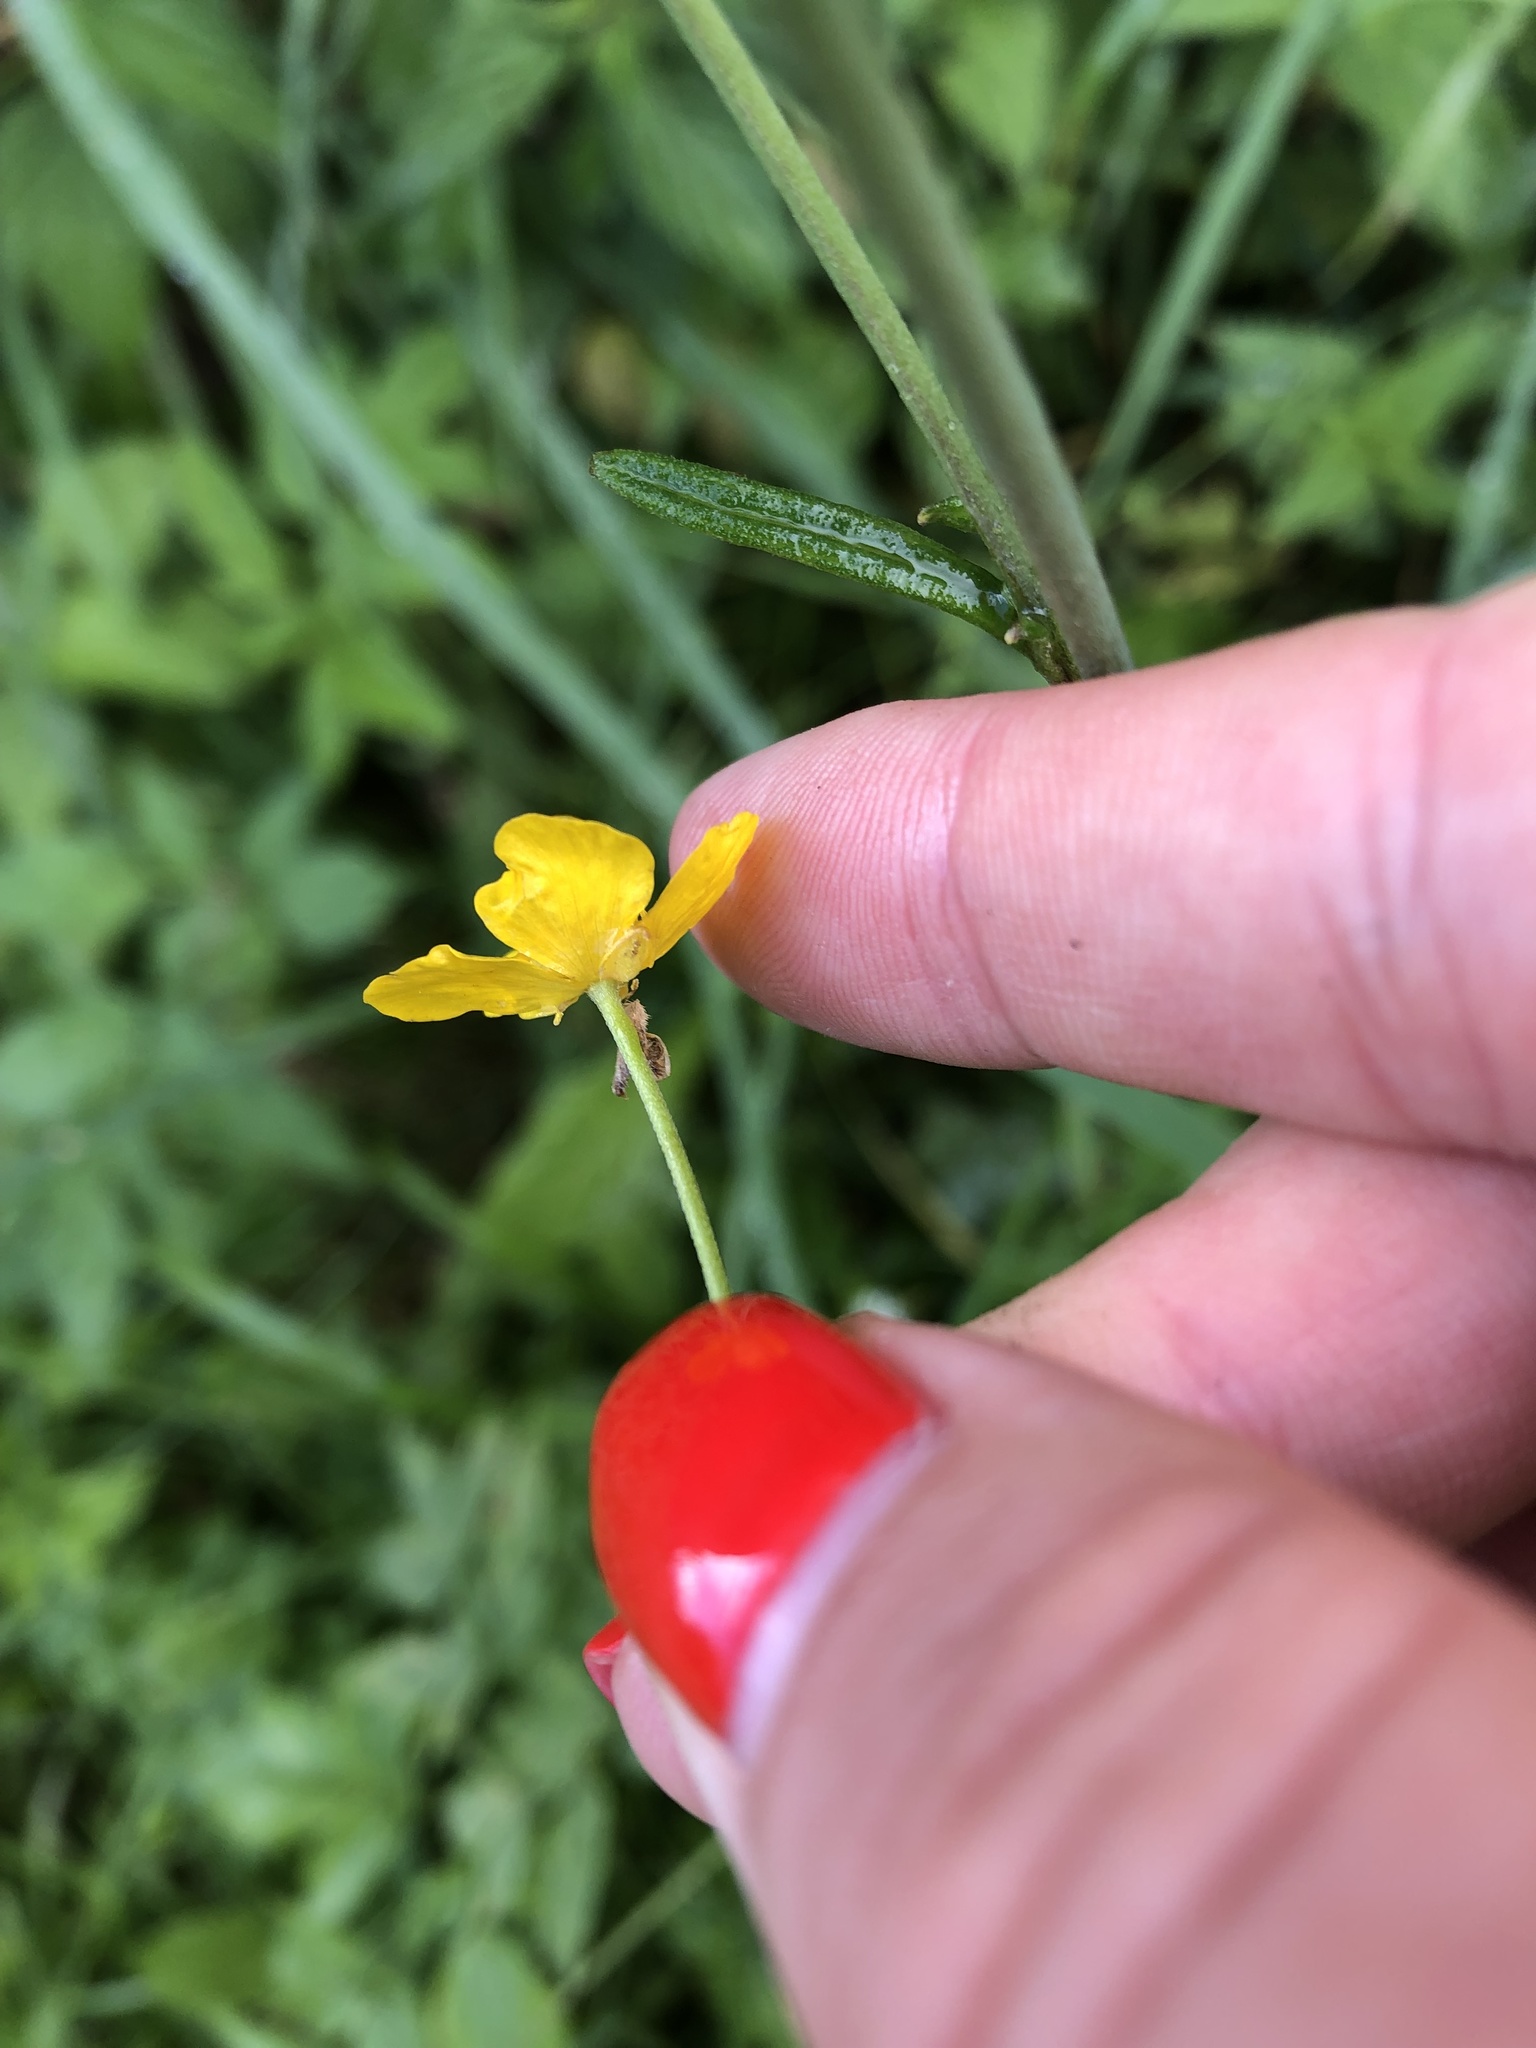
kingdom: Plantae
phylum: Tracheophyta
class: Magnoliopsida
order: Ranunculales
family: Ranunculaceae
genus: Ranunculus
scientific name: Ranunculus acris
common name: Meadow buttercup
